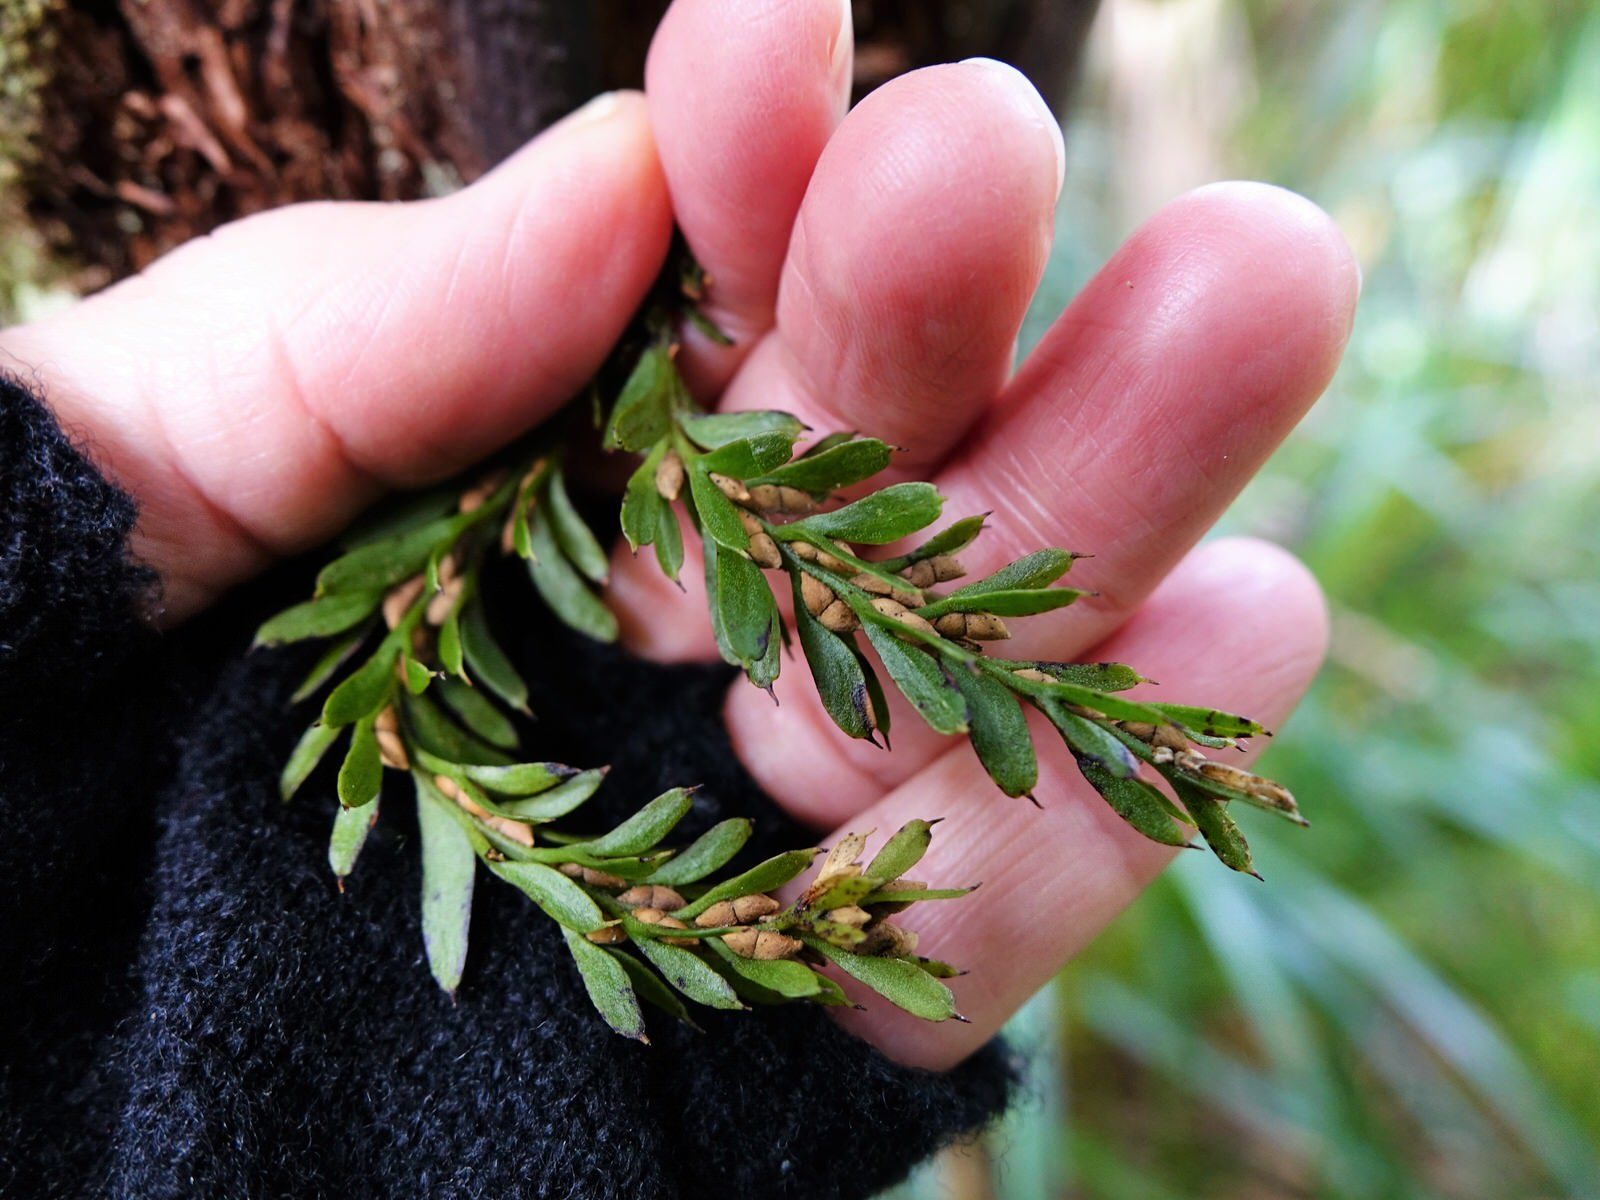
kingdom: Plantae
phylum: Tracheophyta
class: Polypodiopsida
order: Psilotales
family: Psilotaceae
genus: Tmesipteris
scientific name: Tmesipteris tannensis
